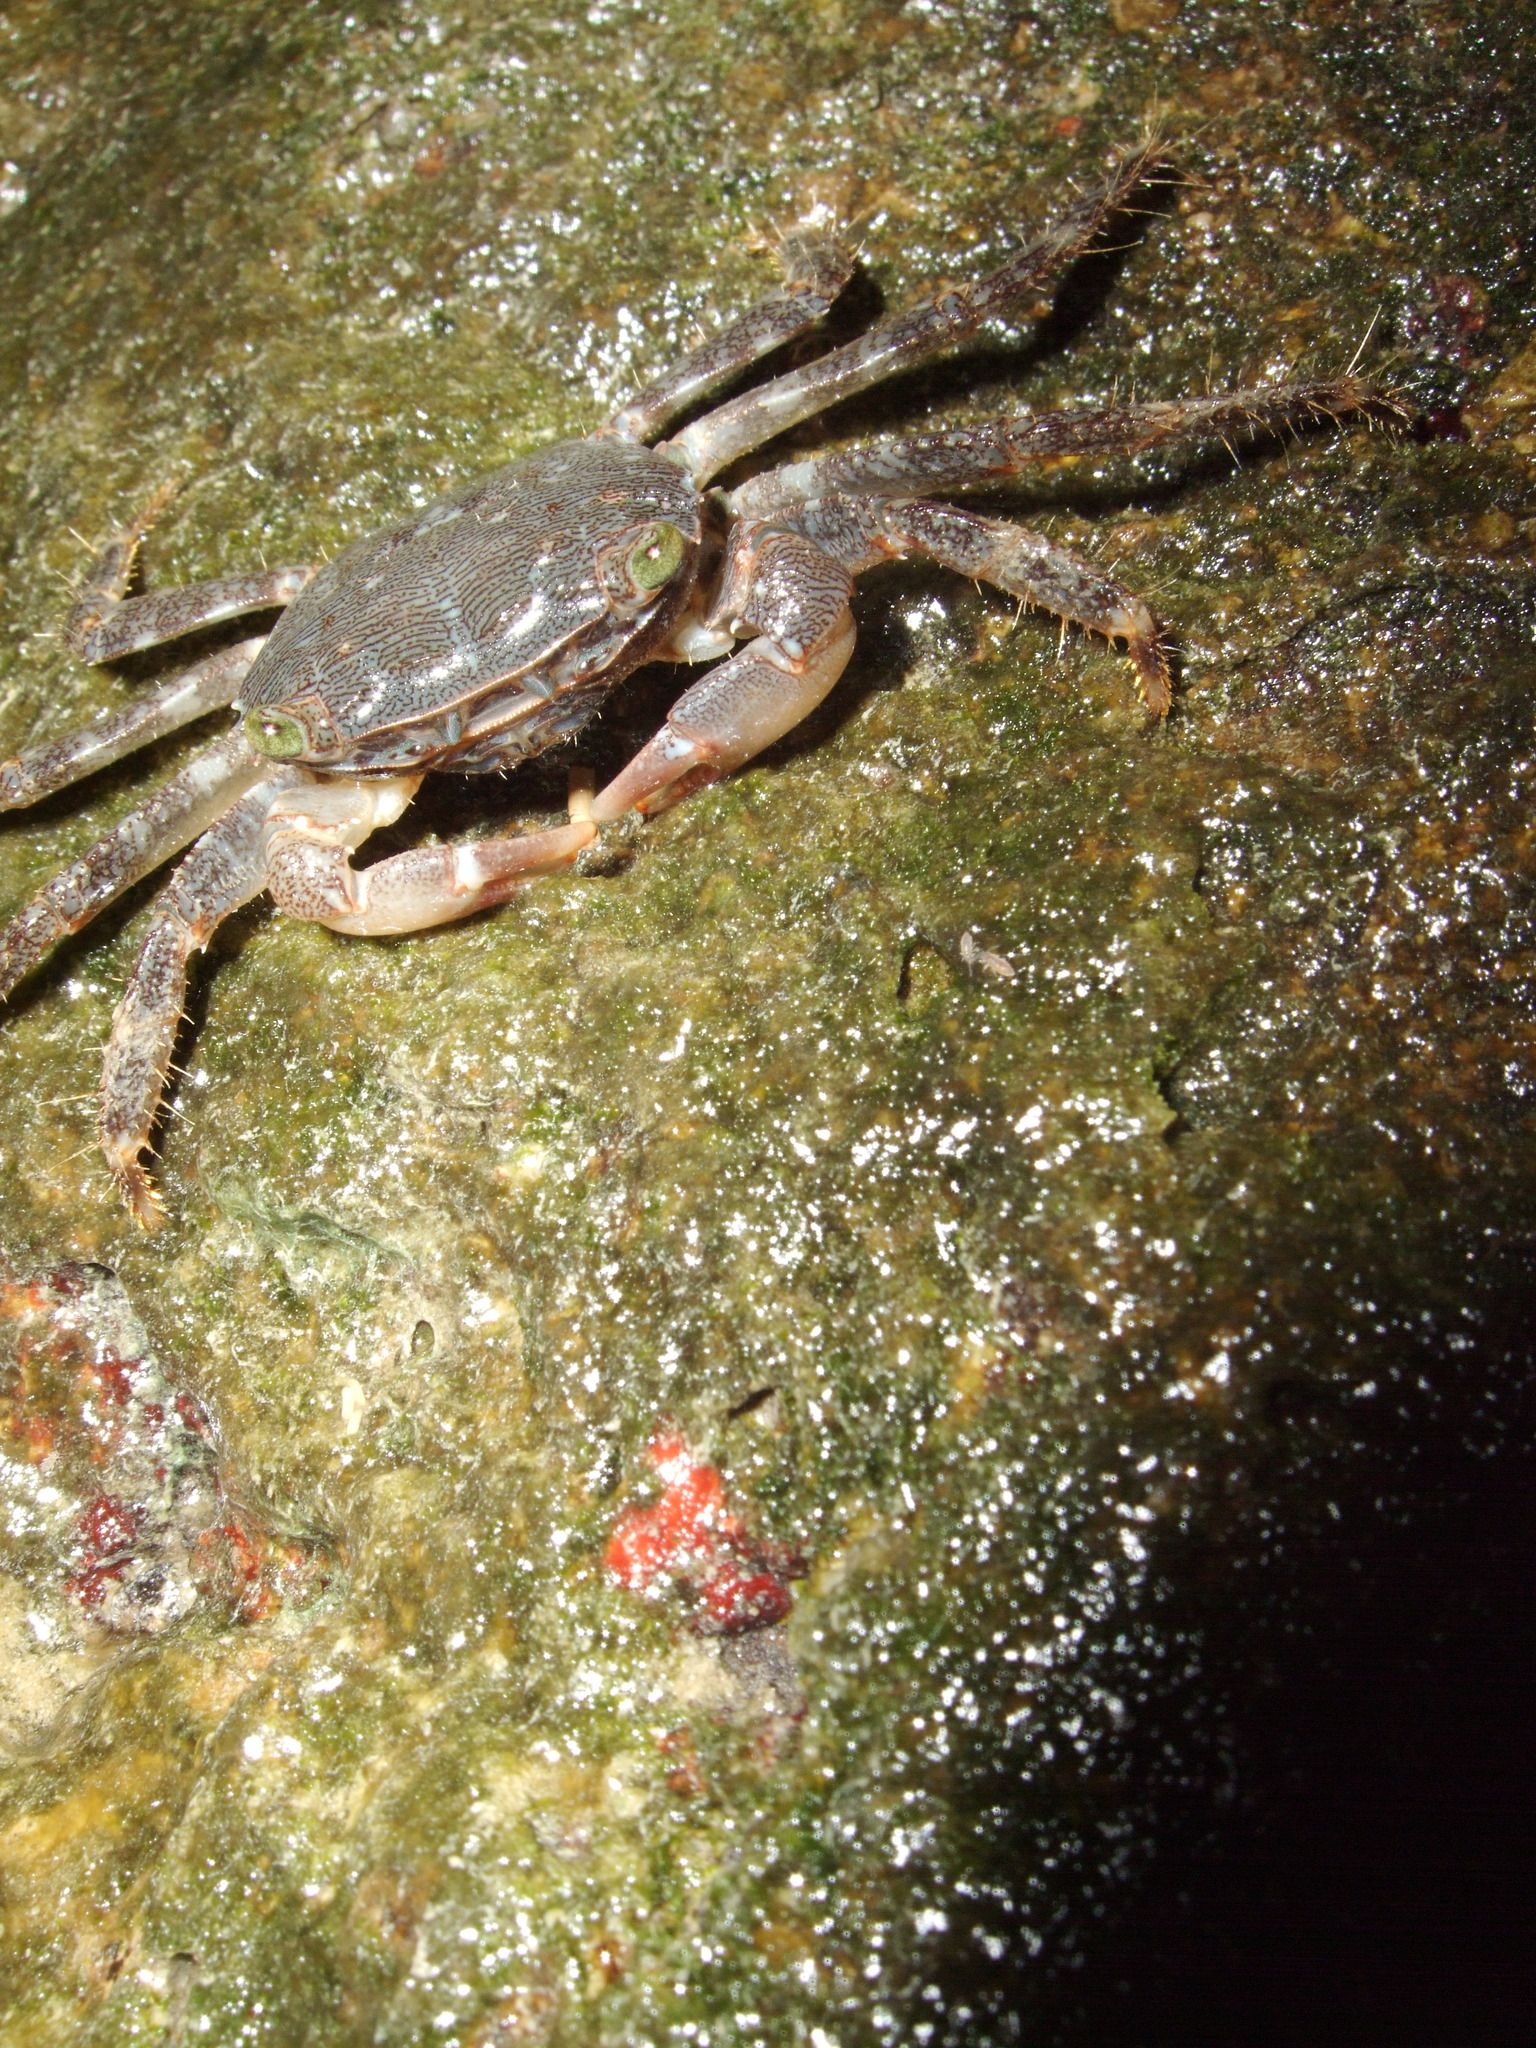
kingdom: Animalia
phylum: Arthropoda
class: Malacostraca
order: Decapoda
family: Grapsidae
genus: Pachygrapsus
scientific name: Pachygrapsus marmoratus
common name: Marbled rock crab
